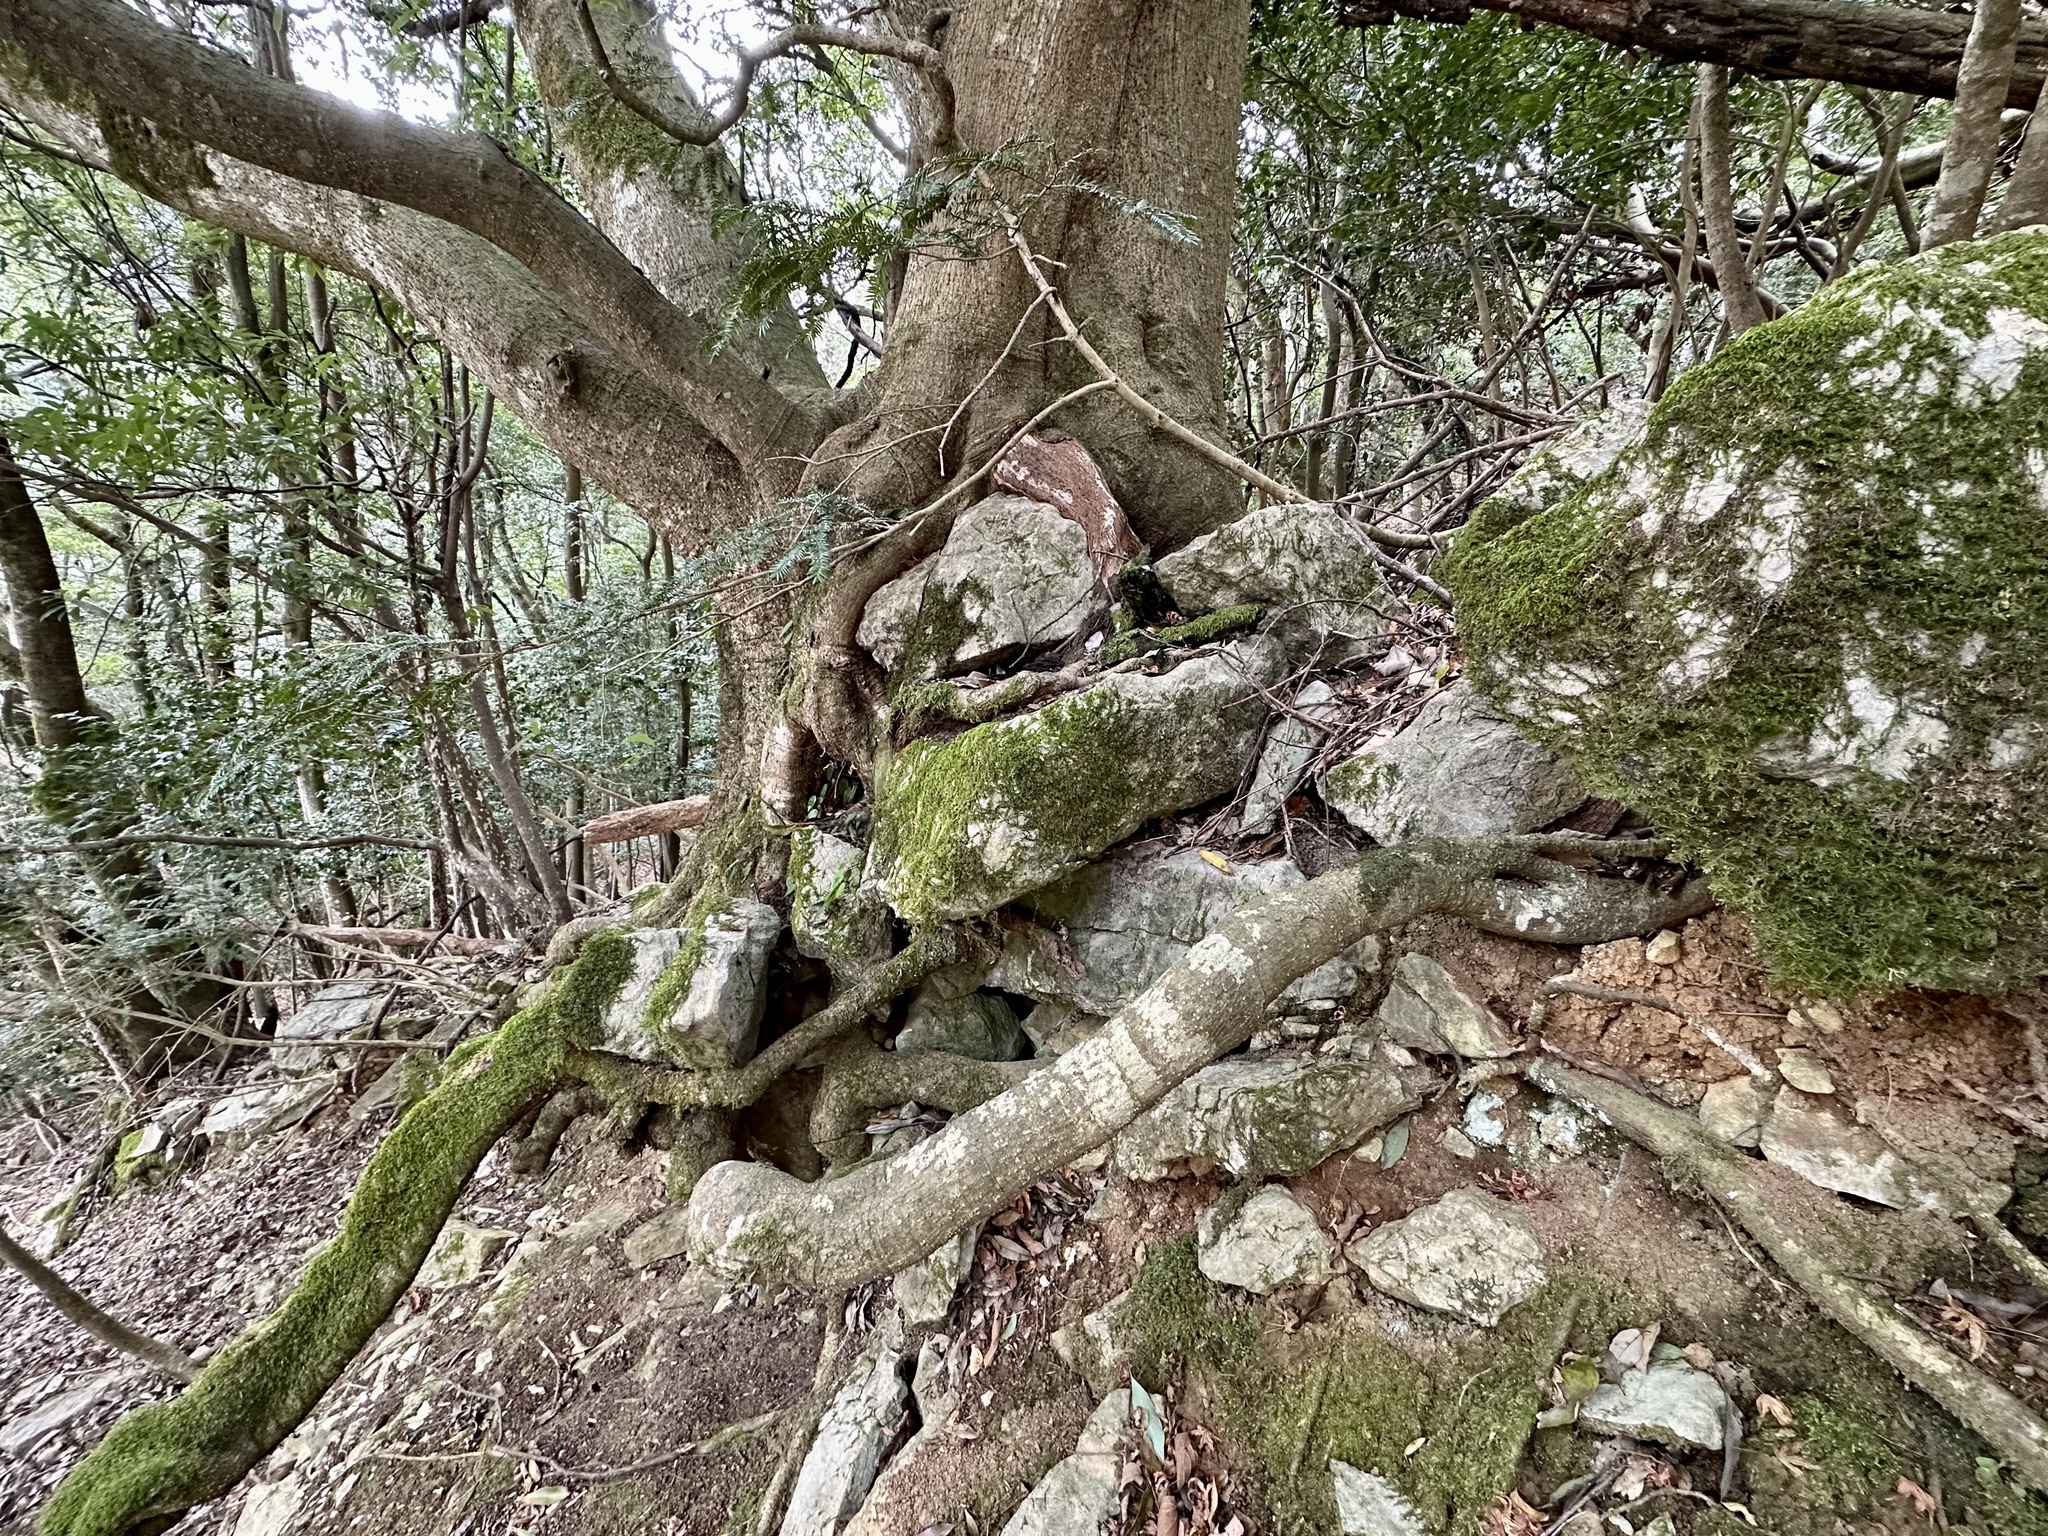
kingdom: Plantae
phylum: Tracheophyta
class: Magnoliopsida
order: Fagales
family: Fagaceae
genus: Quercus
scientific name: Quercus myrsinifolia
